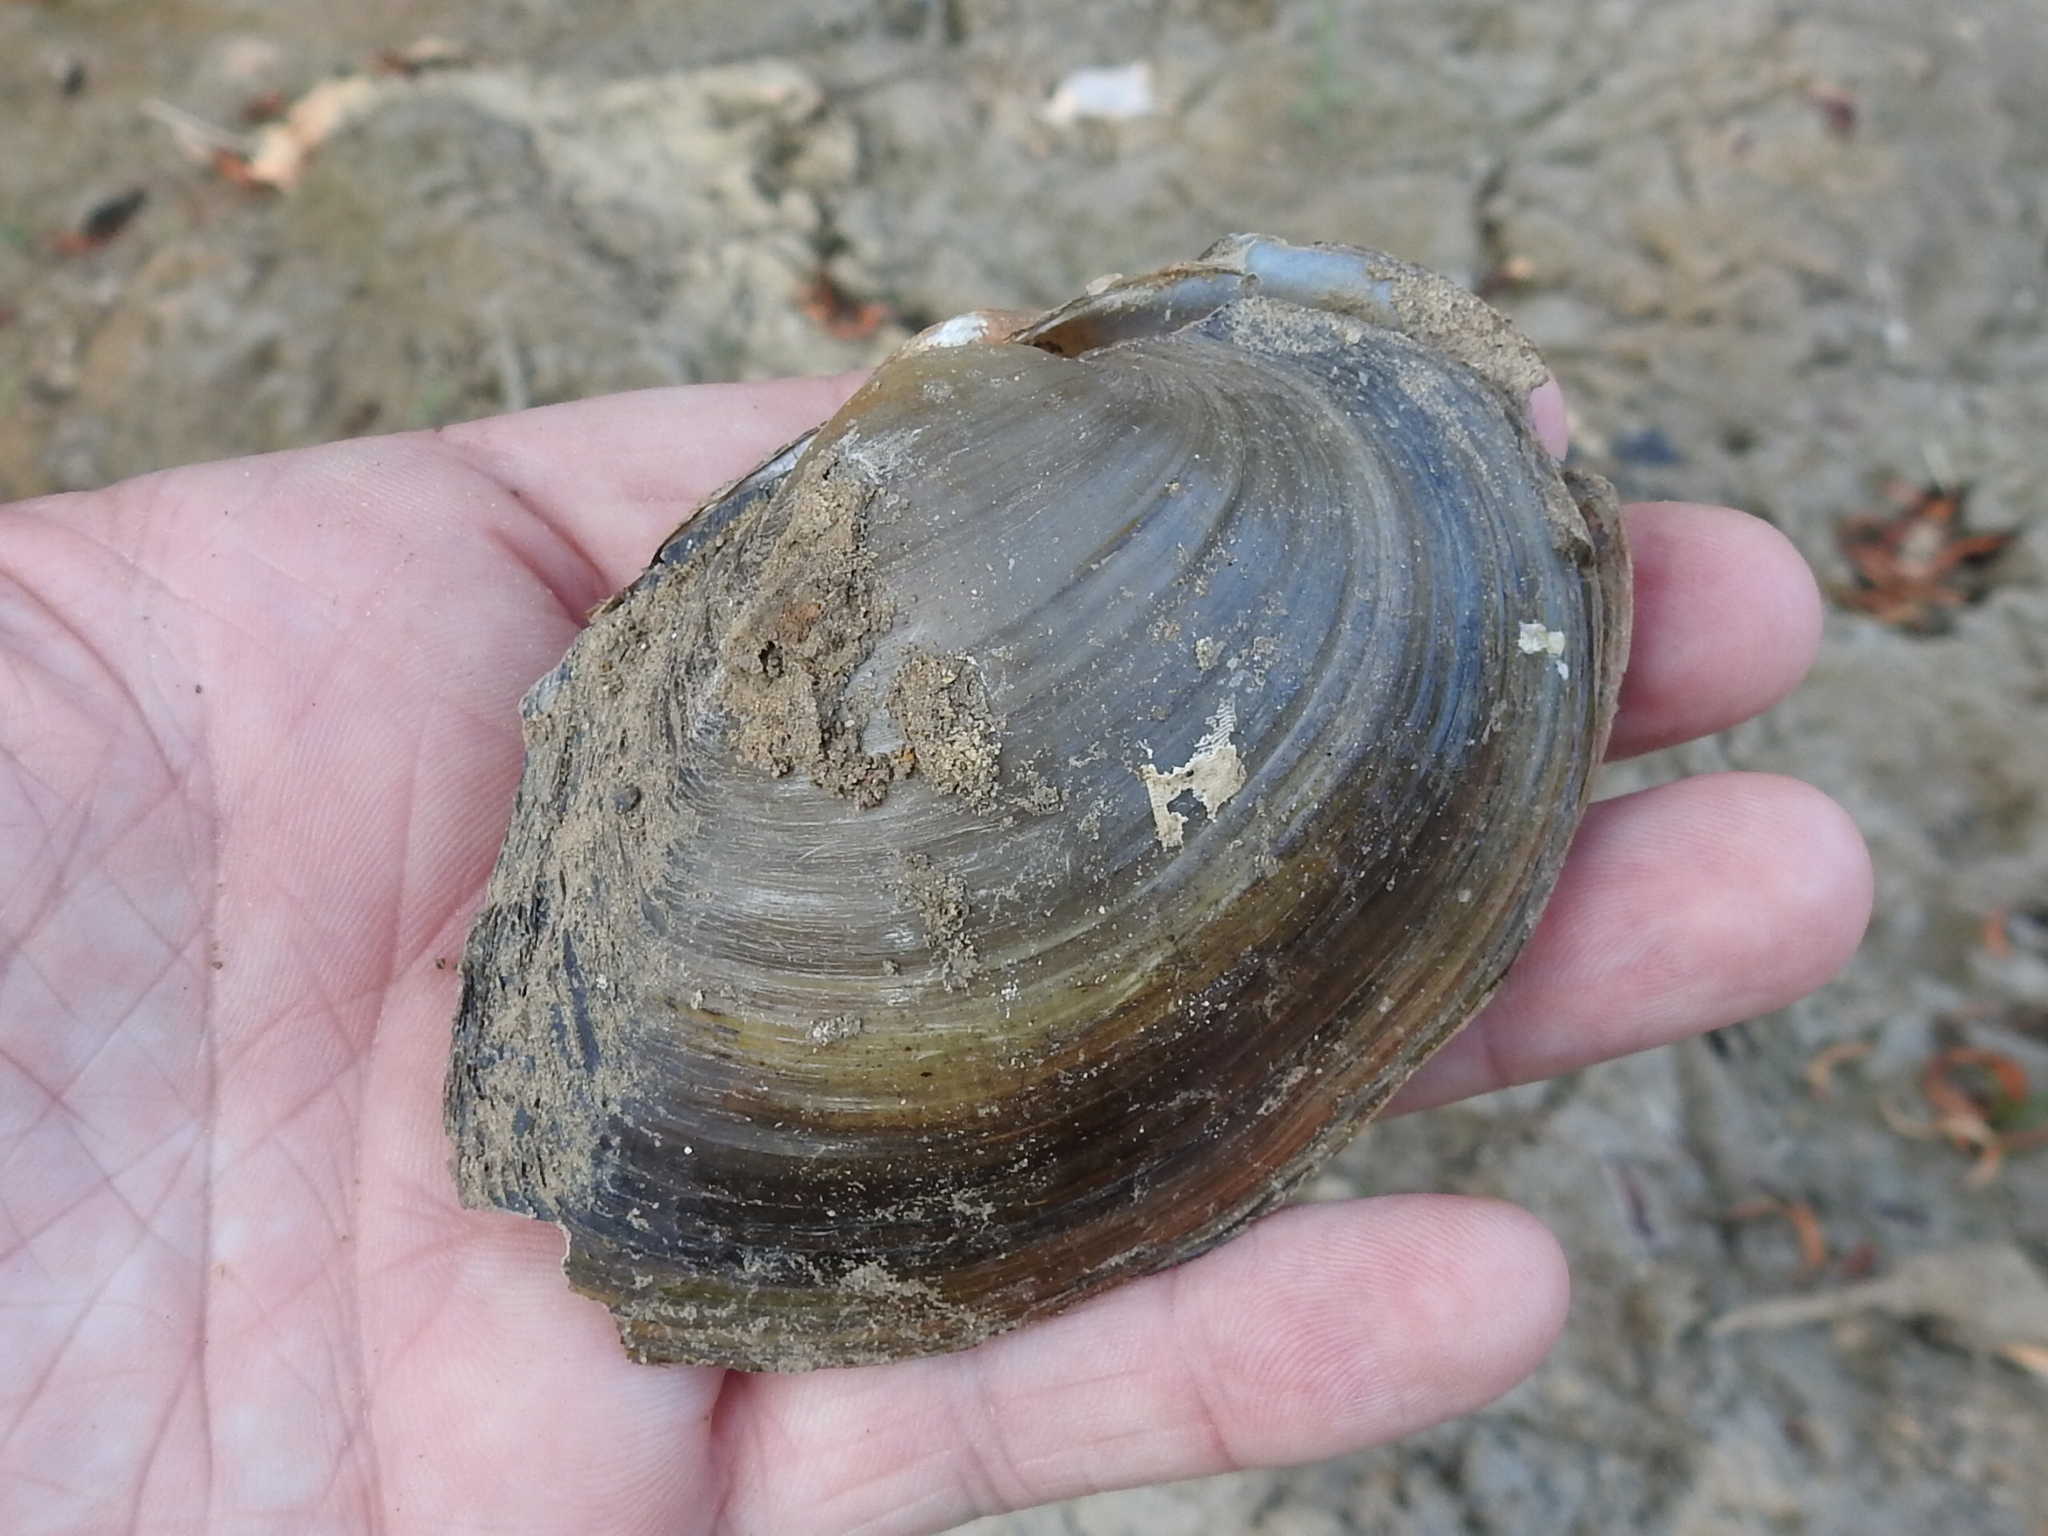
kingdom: Animalia
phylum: Mollusca
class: Bivalvia
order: Unionida
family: Unionidae
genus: Pyganodon
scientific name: Pyganodon grandis
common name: Giant floater
